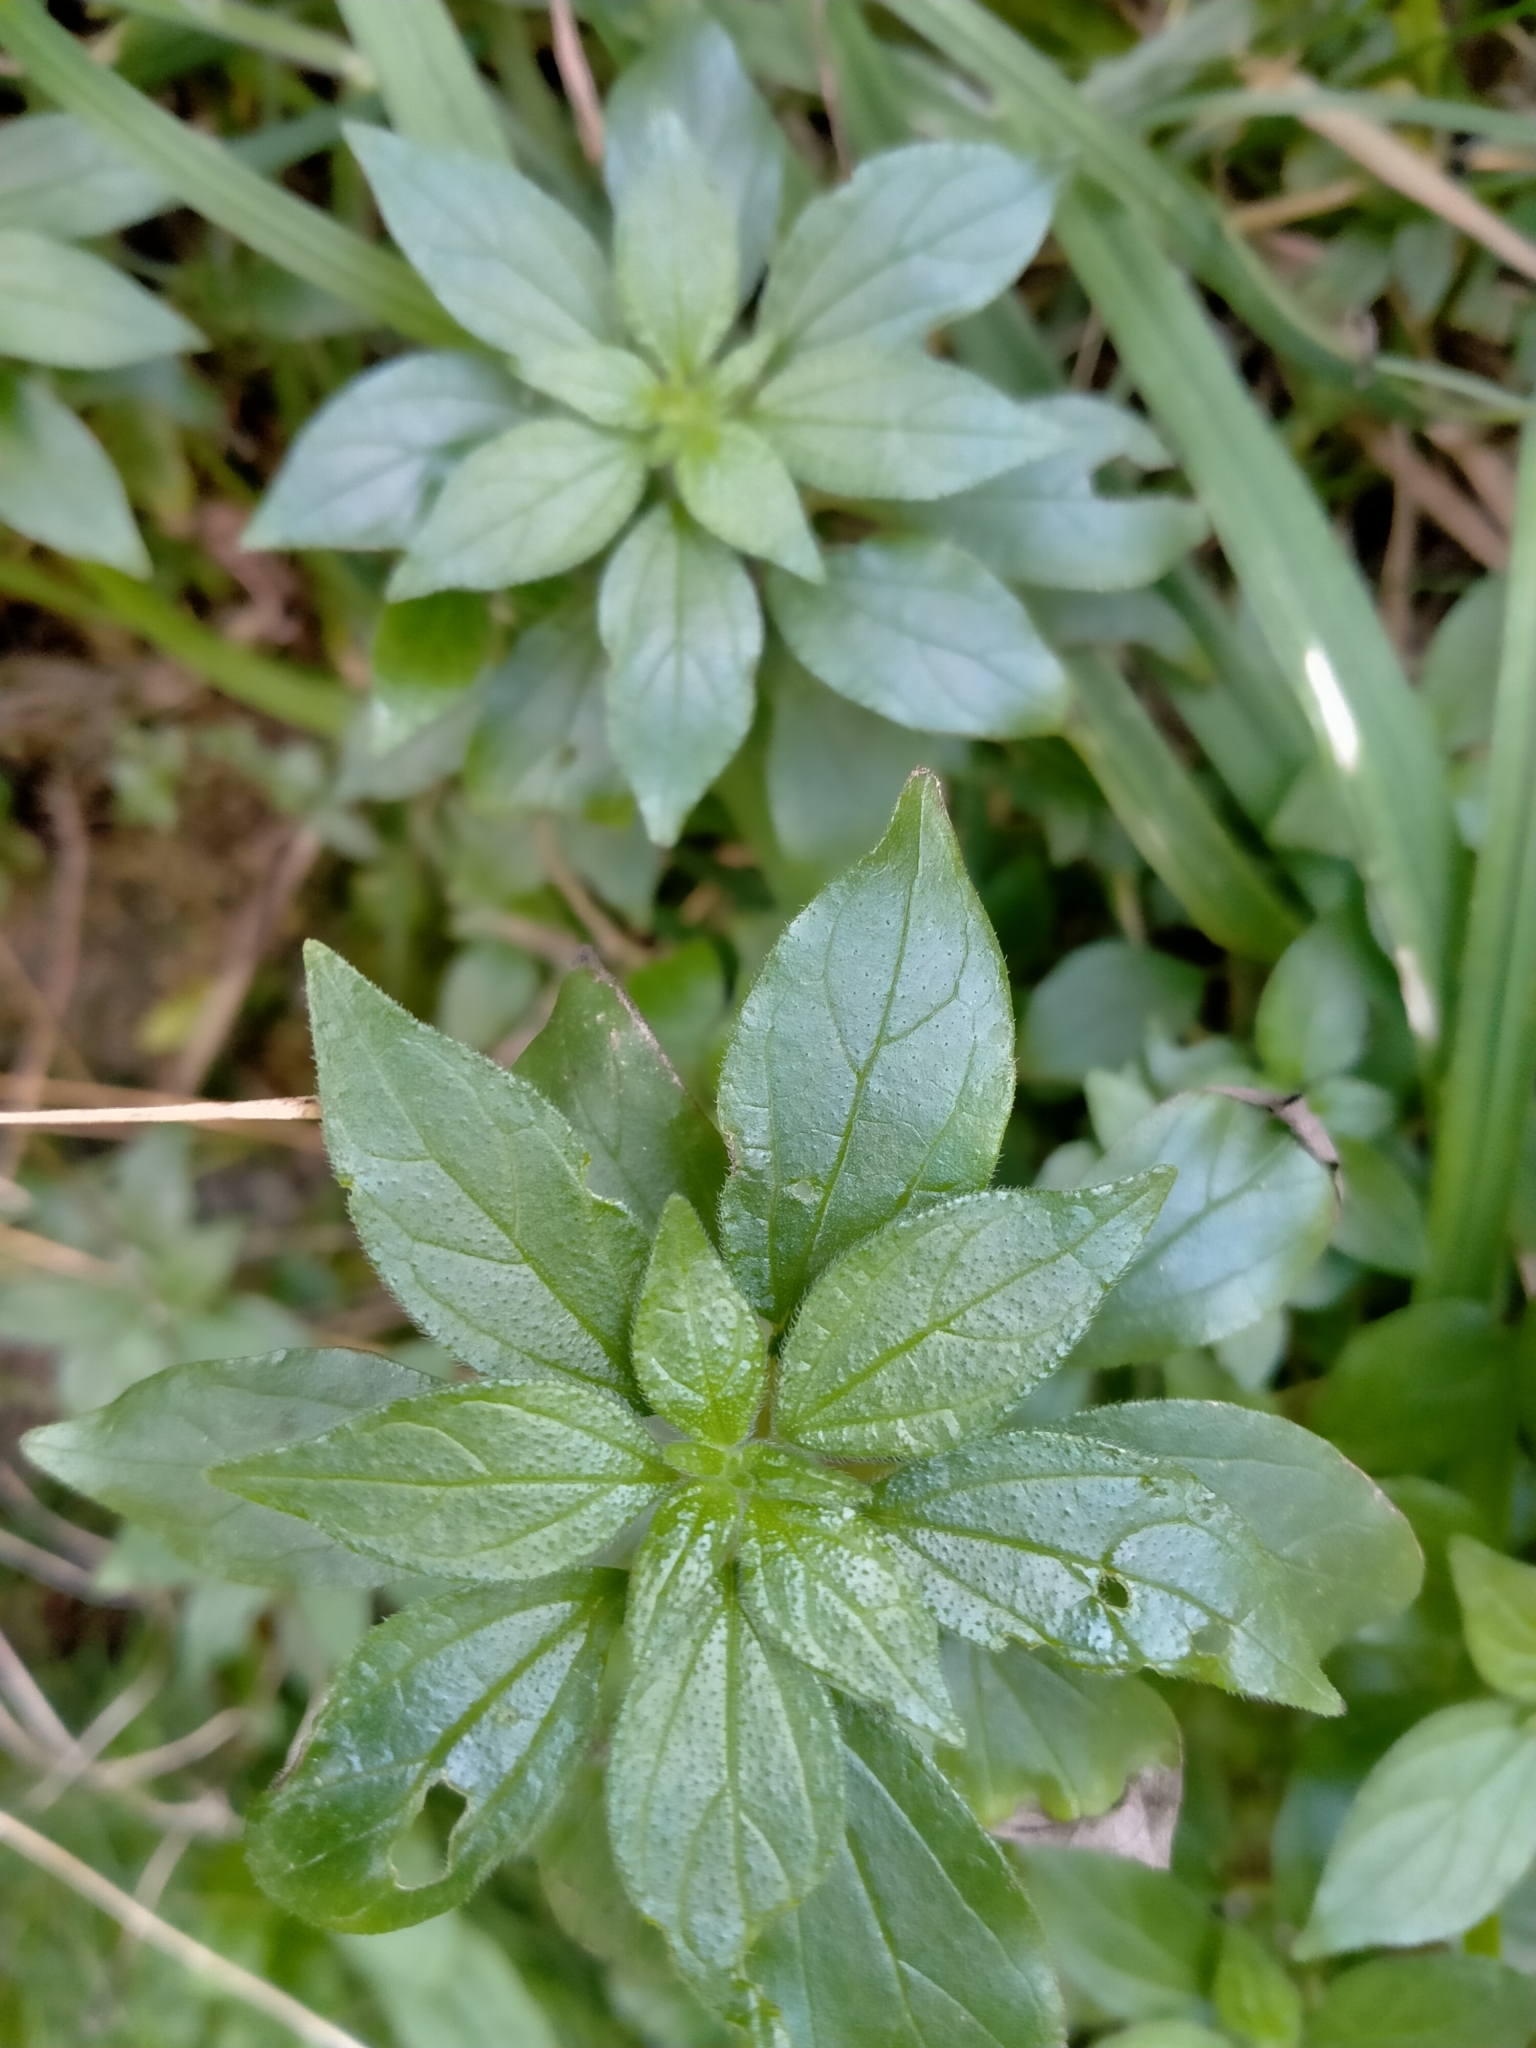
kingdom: Plantae
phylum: Tracheophyta
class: Magnoliopsida
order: Rosales
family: Urticaceae
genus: Parietaria
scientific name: Parietaria judaica
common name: Pellitory-of-the-wall
